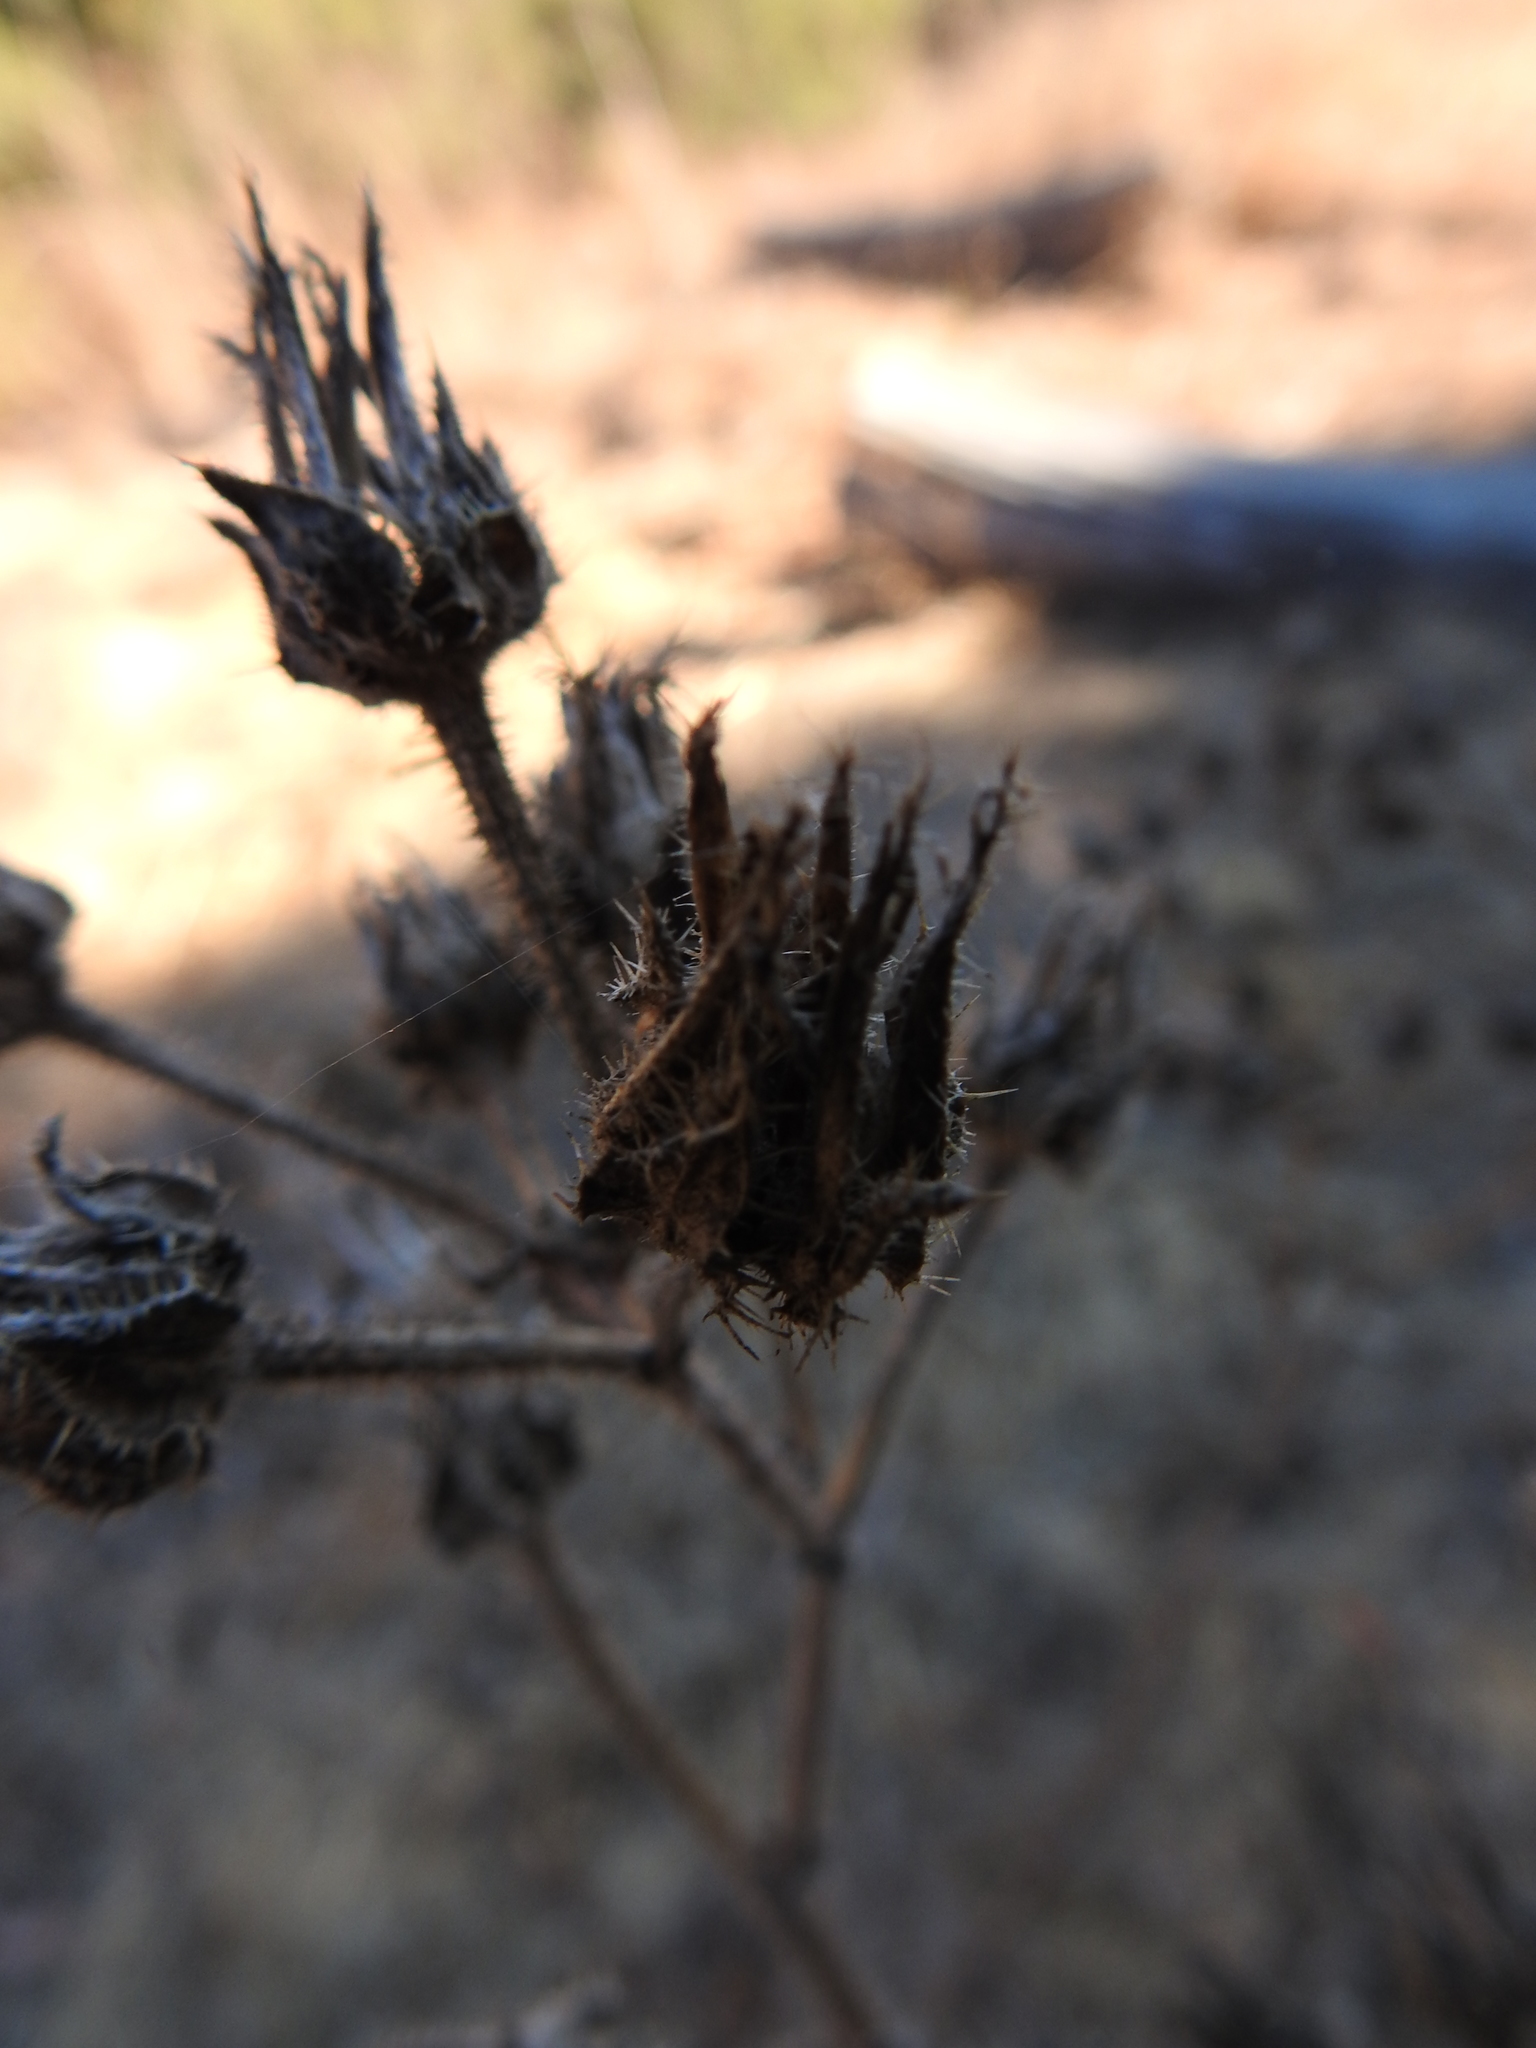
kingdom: Plantae
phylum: Tracheophyta
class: Magnoliopsida
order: Asterales
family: Asteraceae
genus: Helminthotheca
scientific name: Helminthotheca echioides
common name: Ox-tongue
